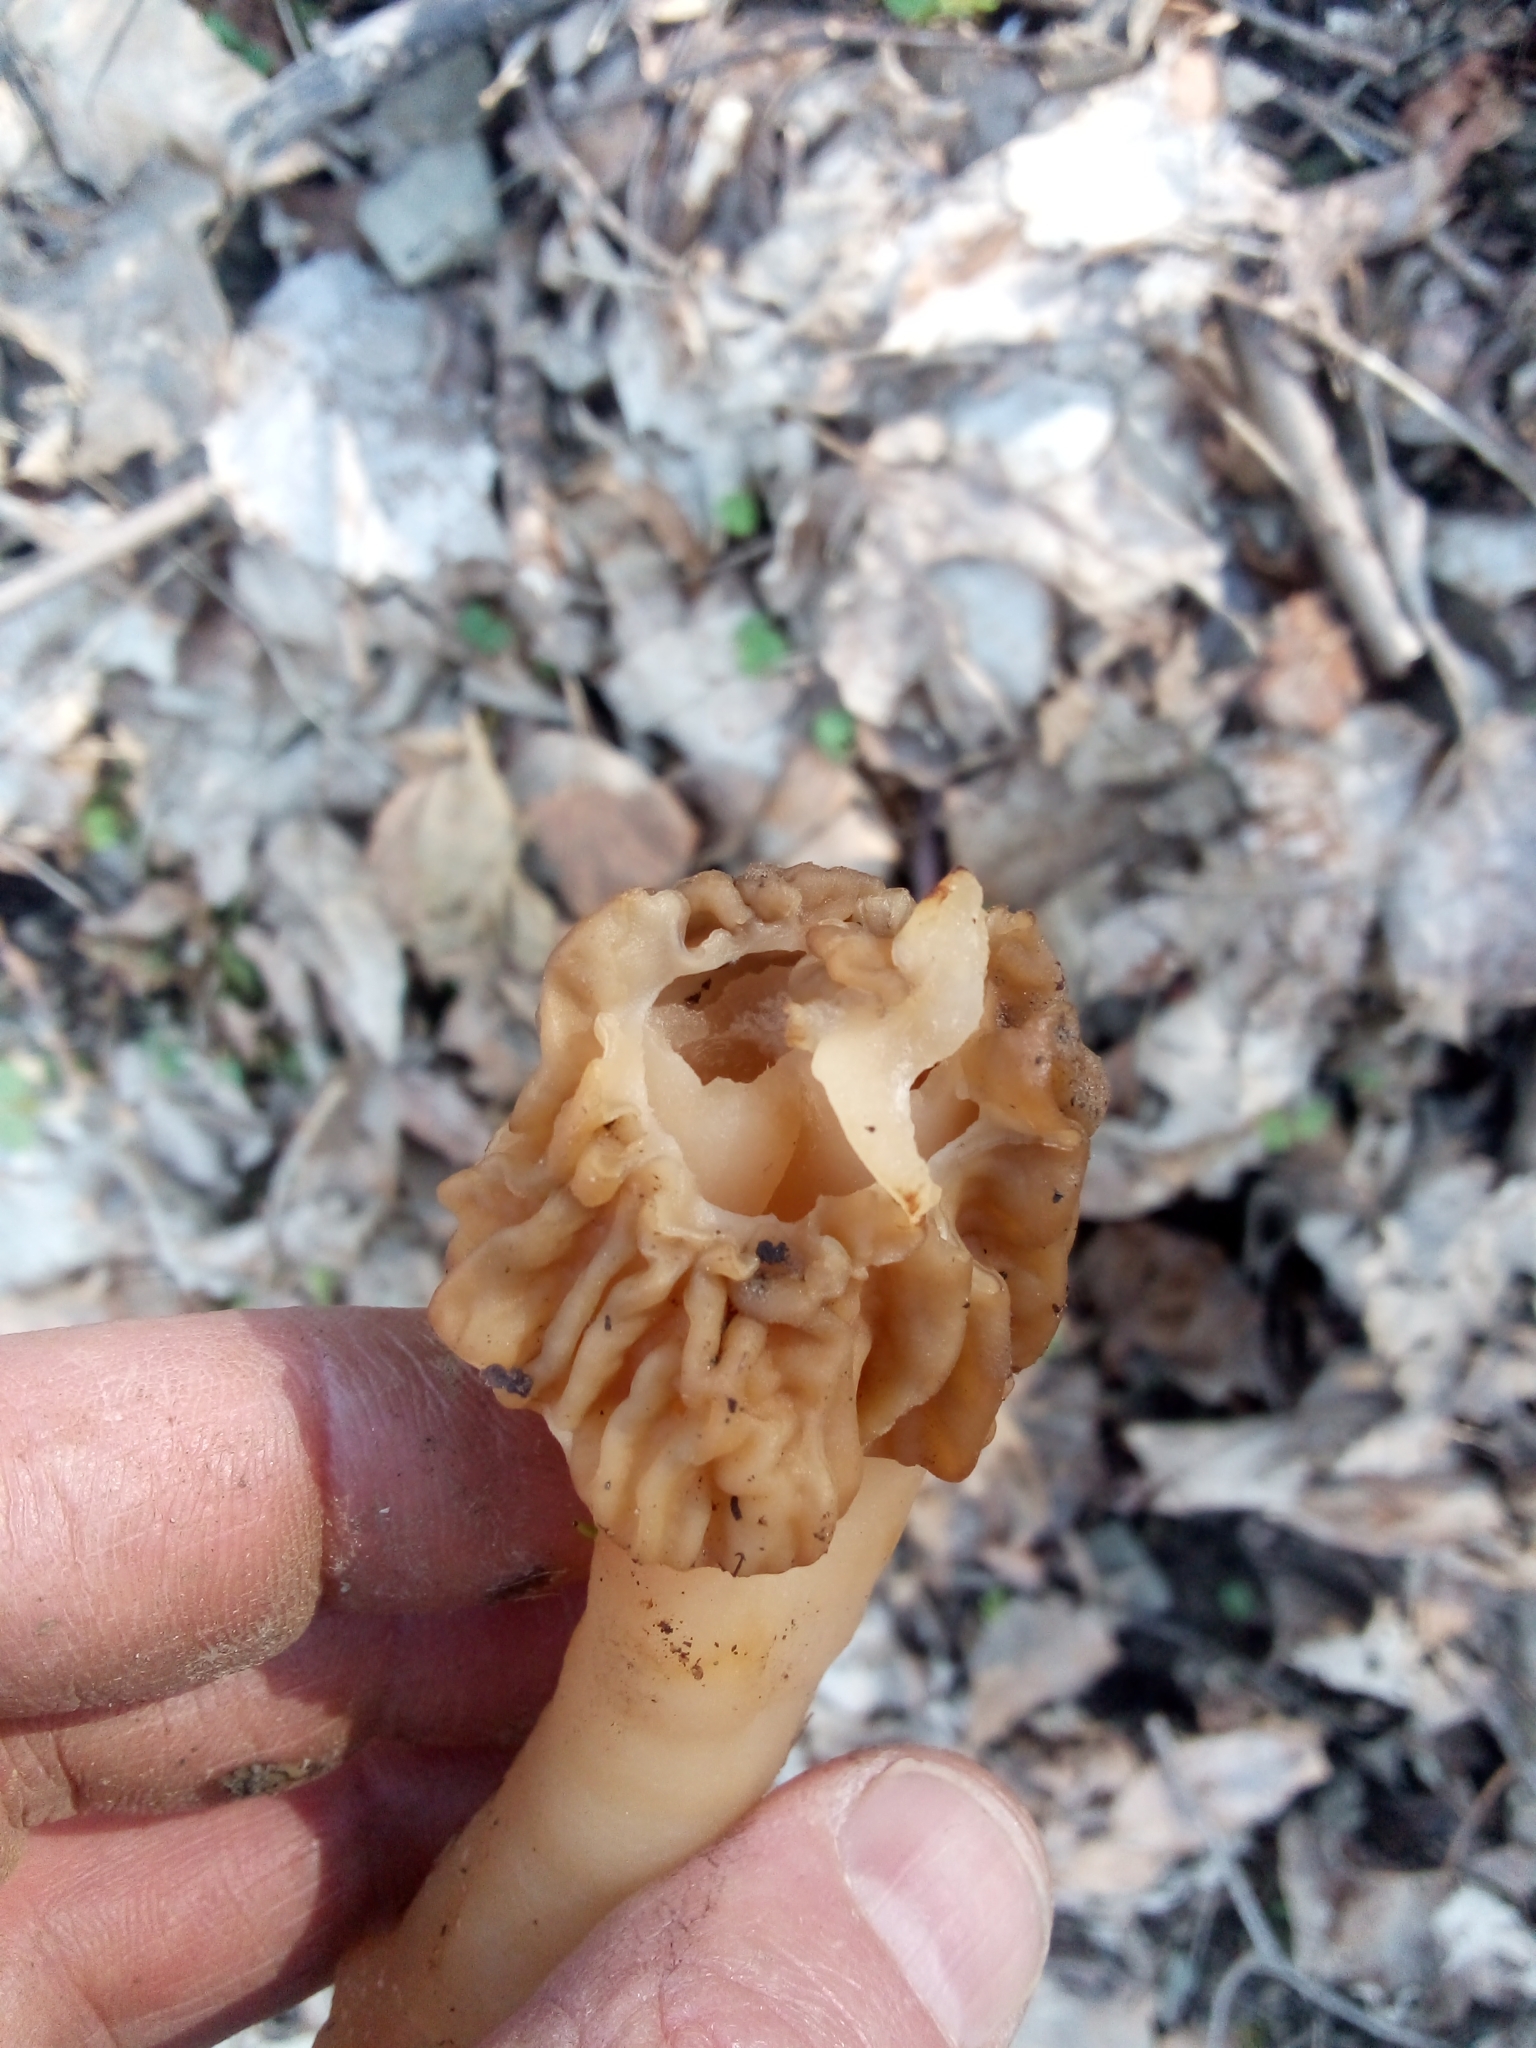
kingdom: Fungi
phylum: Ascomycota
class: Pezizomycetes
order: Pezizales
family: Morchellaceae
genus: Verpa
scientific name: Verpa bohemica
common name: Wrinkled thimble morel
